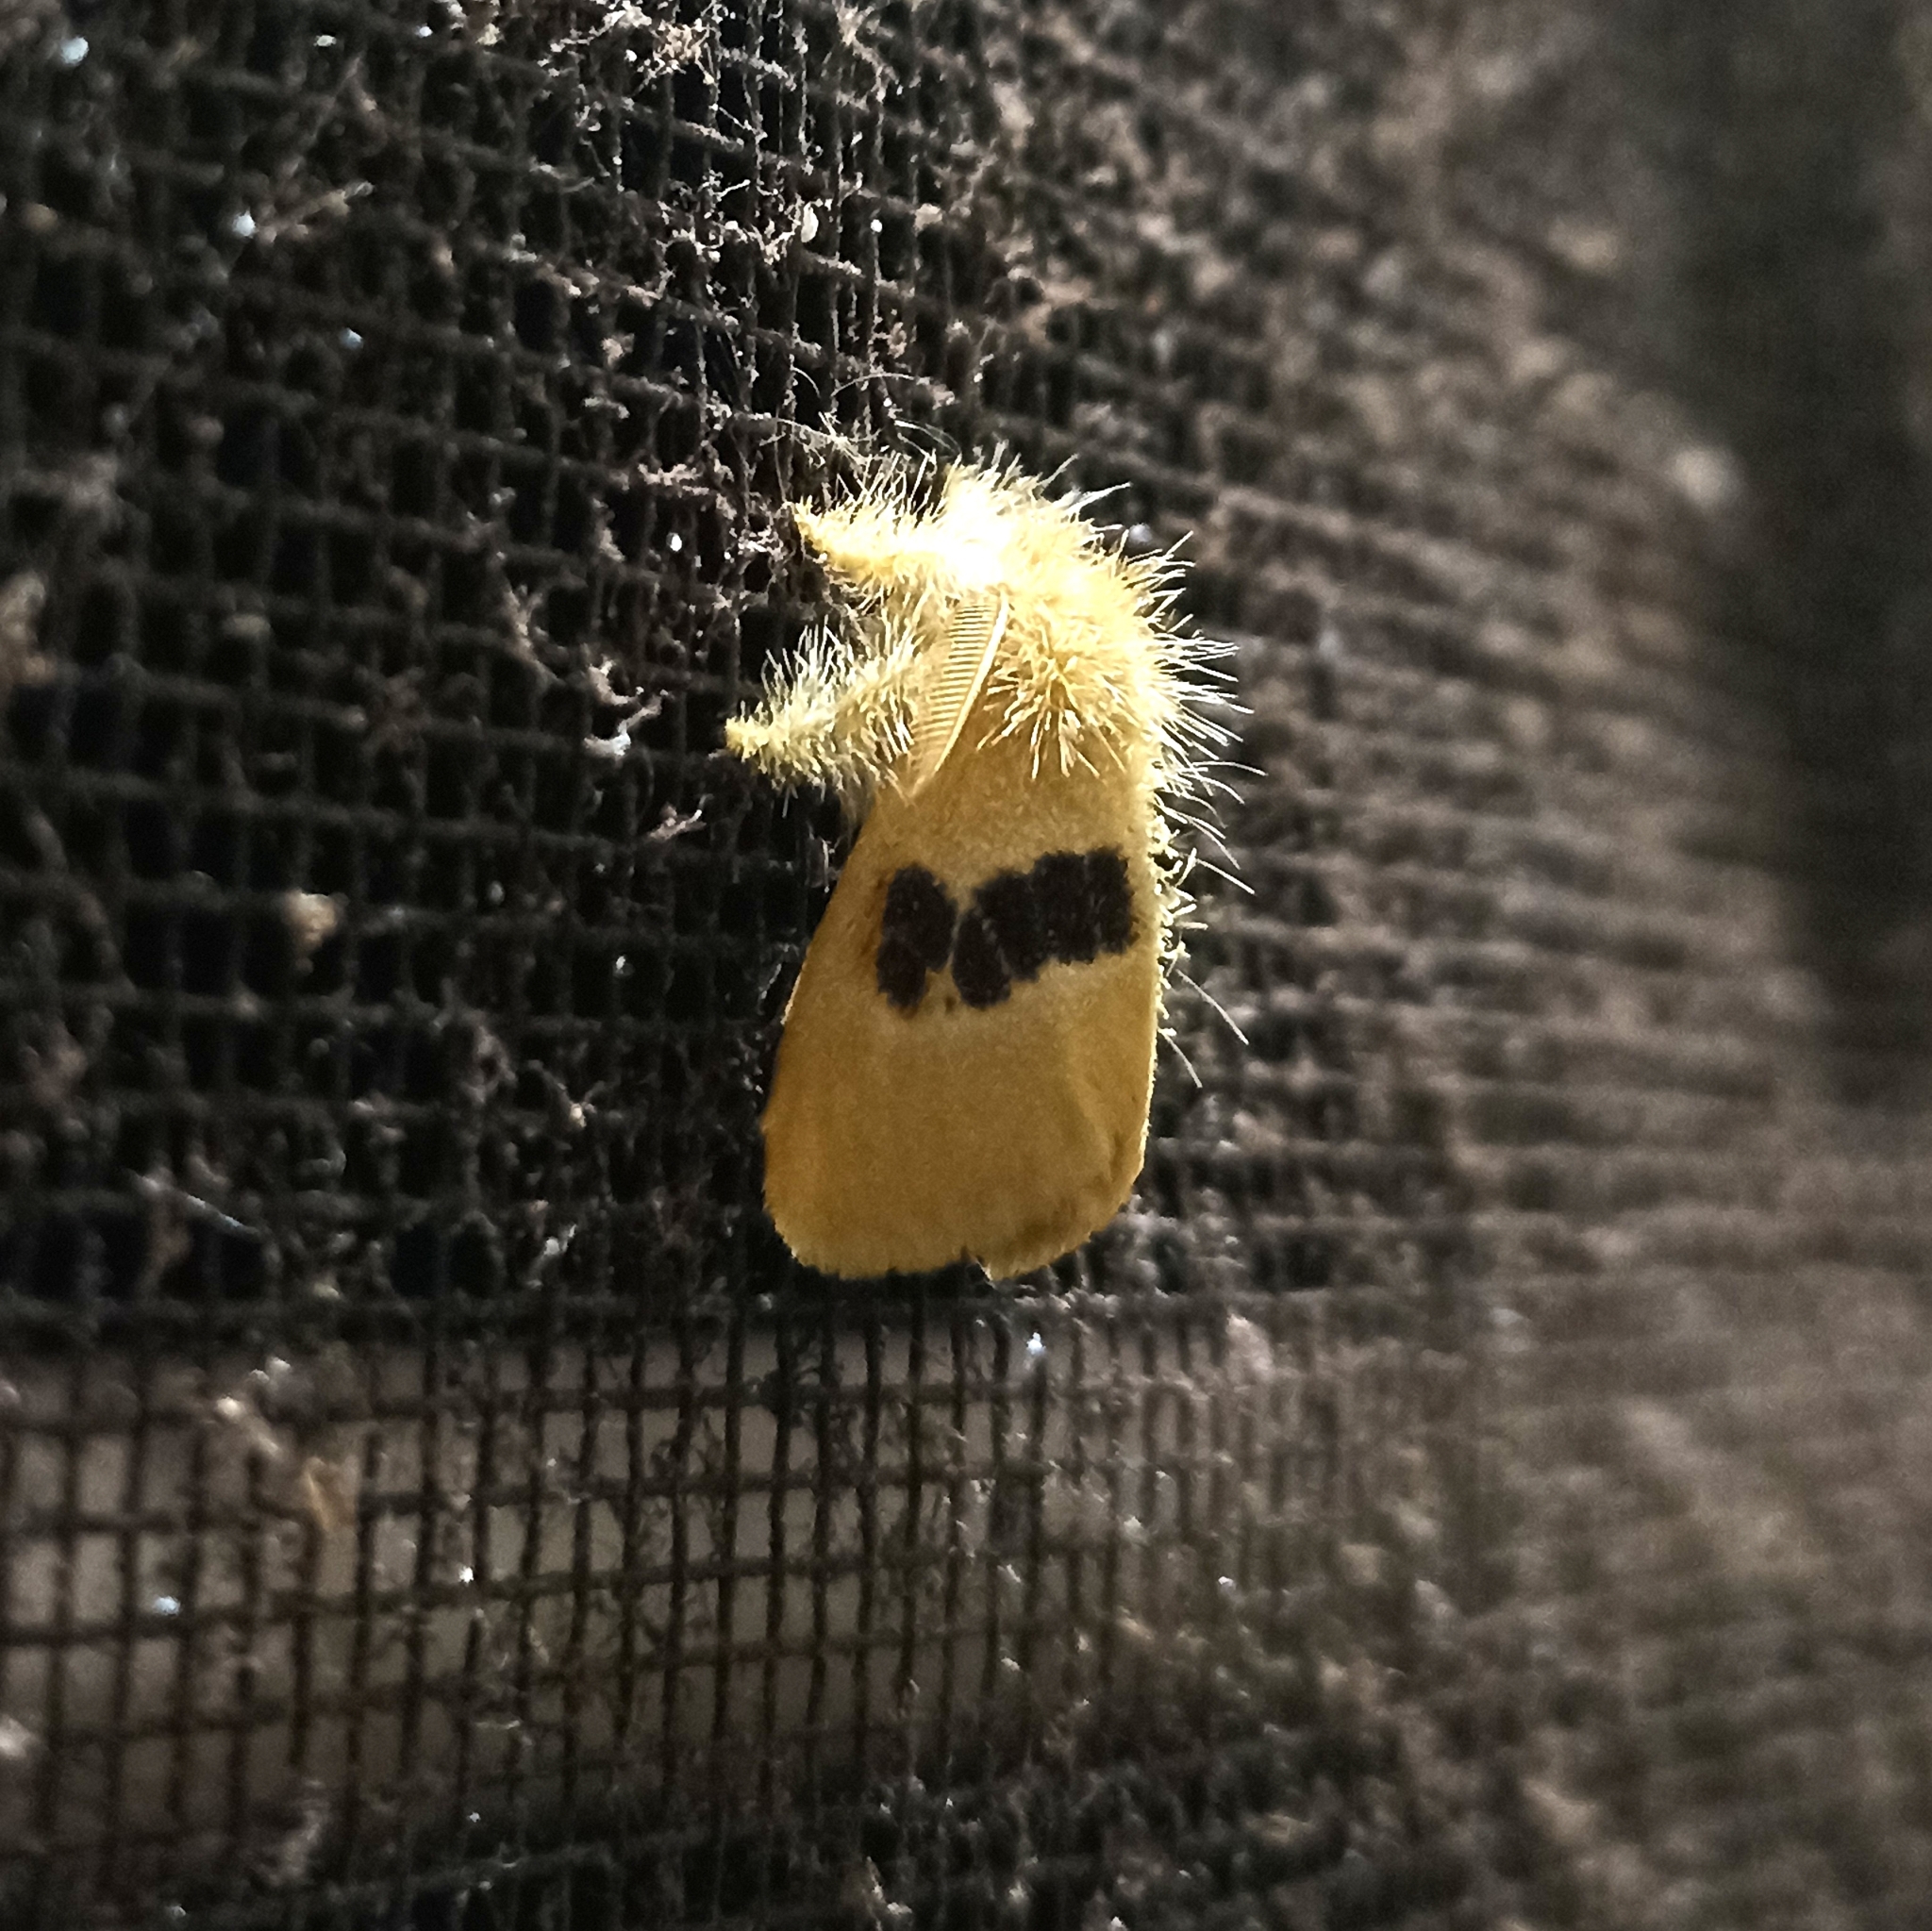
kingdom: Animalia
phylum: Arthropoda
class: Insecta
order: Lepidoptera
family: Erebidae
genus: Euproctis
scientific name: Euproctis erecta
